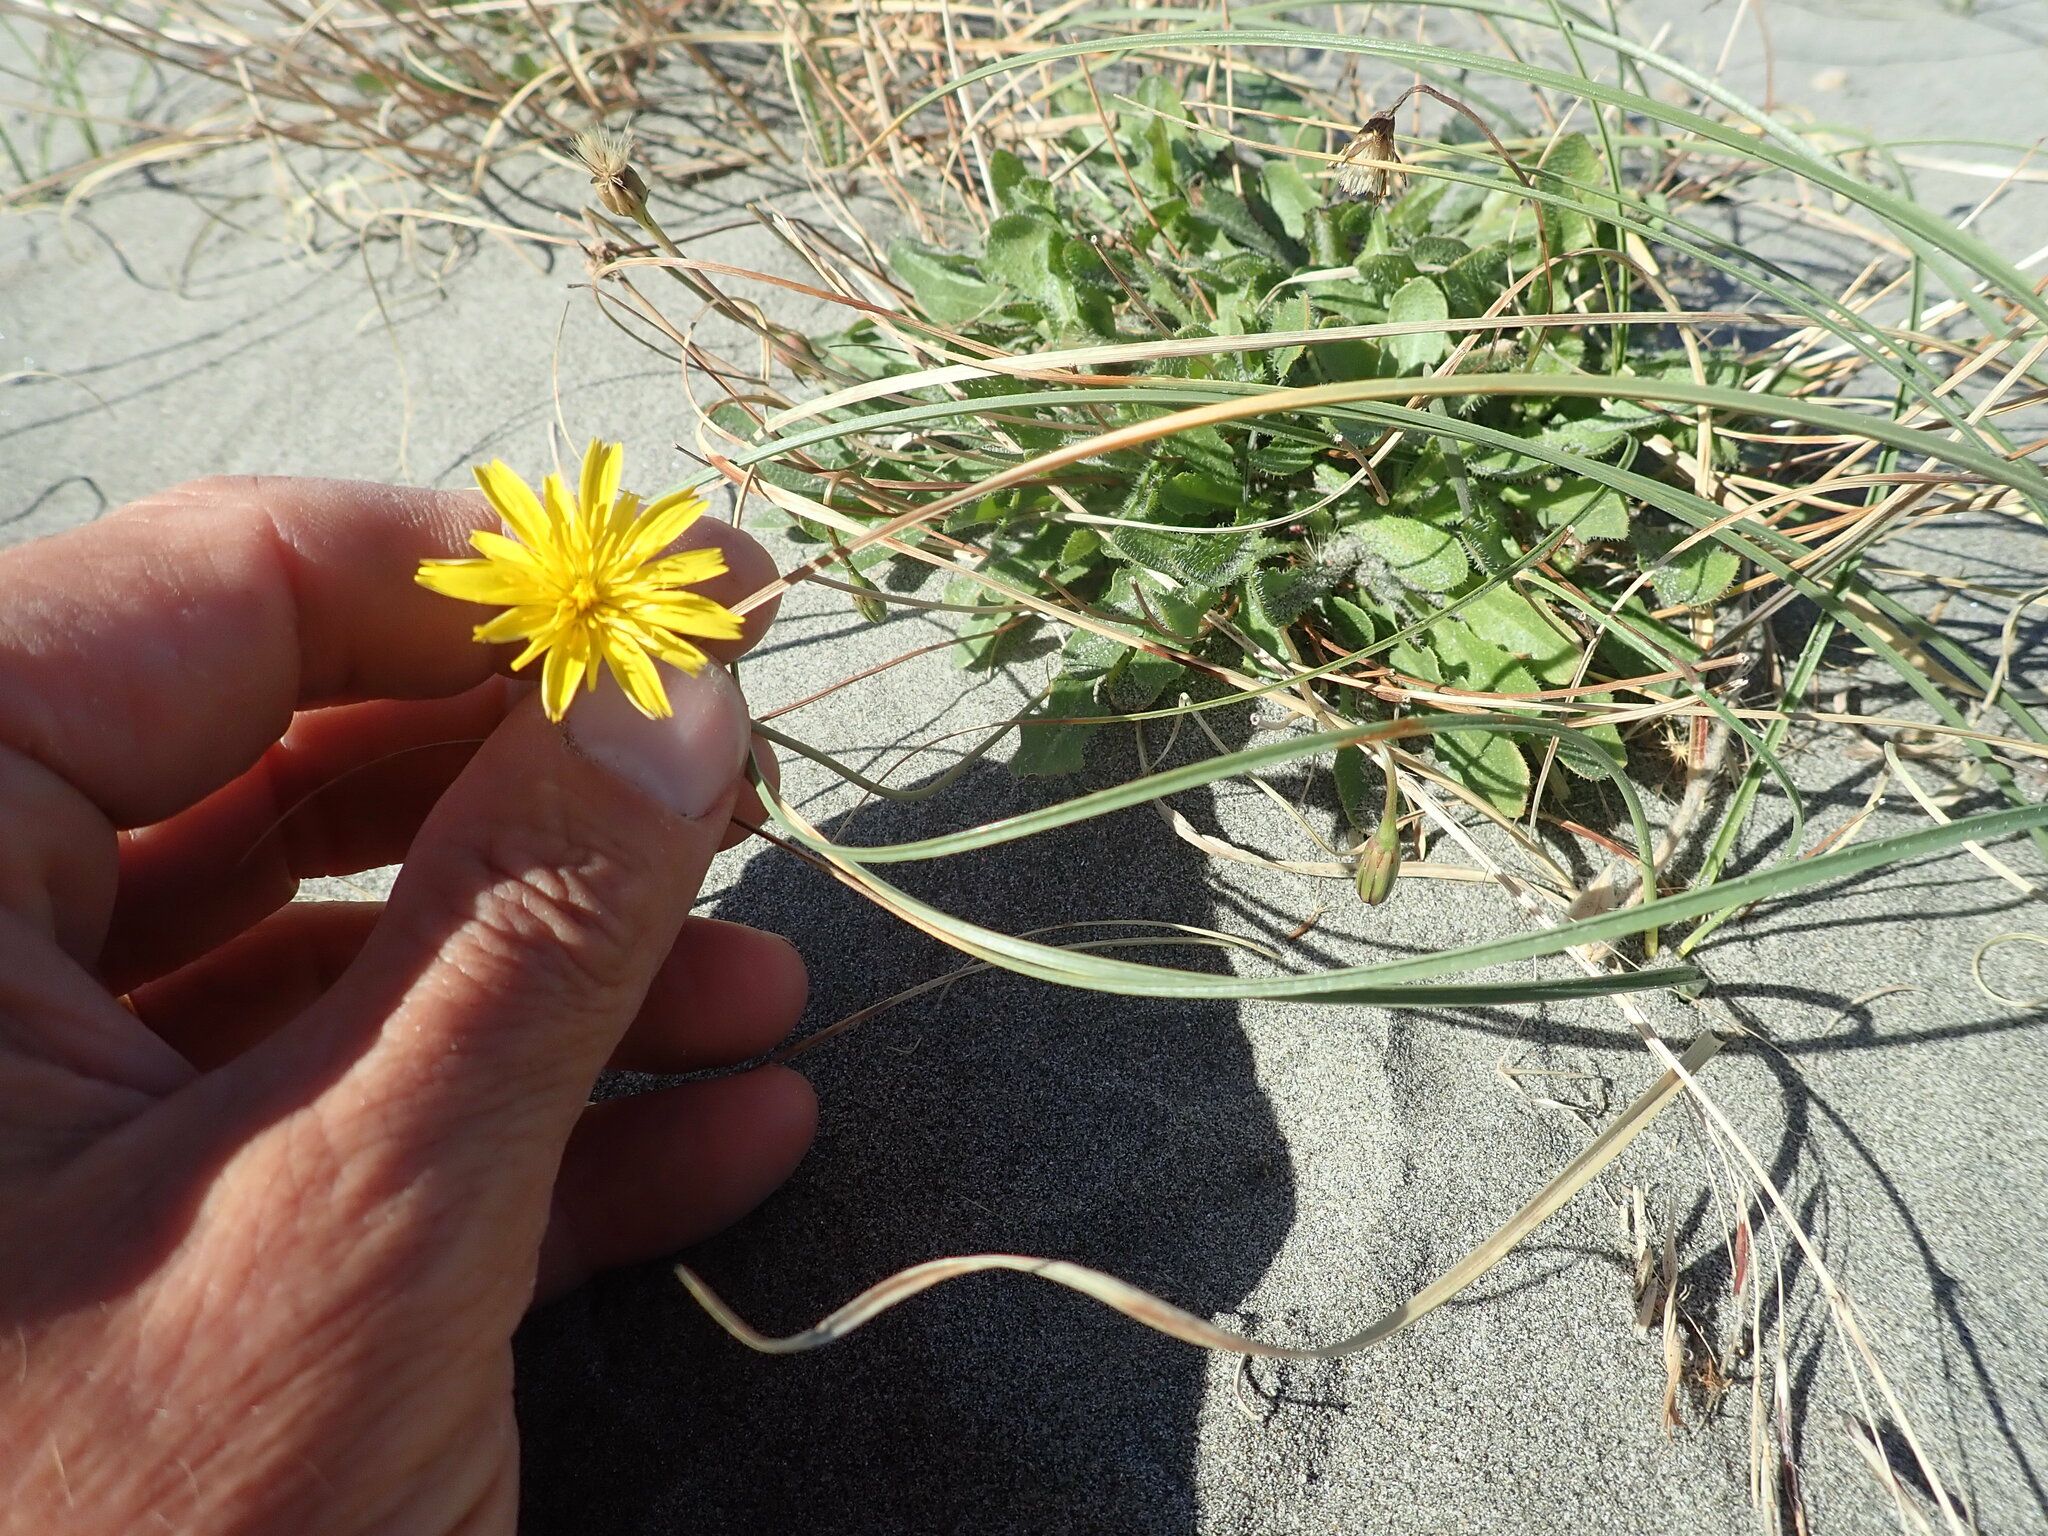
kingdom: Plantae
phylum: Tracheophyta
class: Magnoliopsida
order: Asterales
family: Asteraceae
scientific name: Asteraceae
